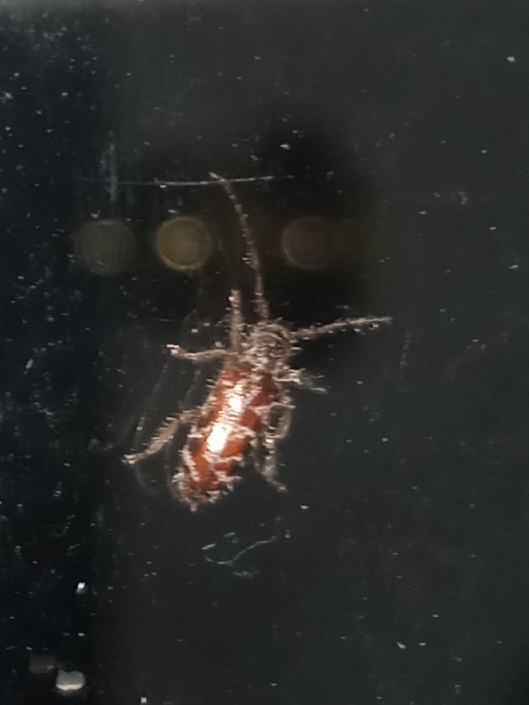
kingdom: Animalia
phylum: Arthropoda
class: Insecta
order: Coleoptera
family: Cerambycidae
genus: Eupogonius
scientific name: Eupogonius tomentosus
